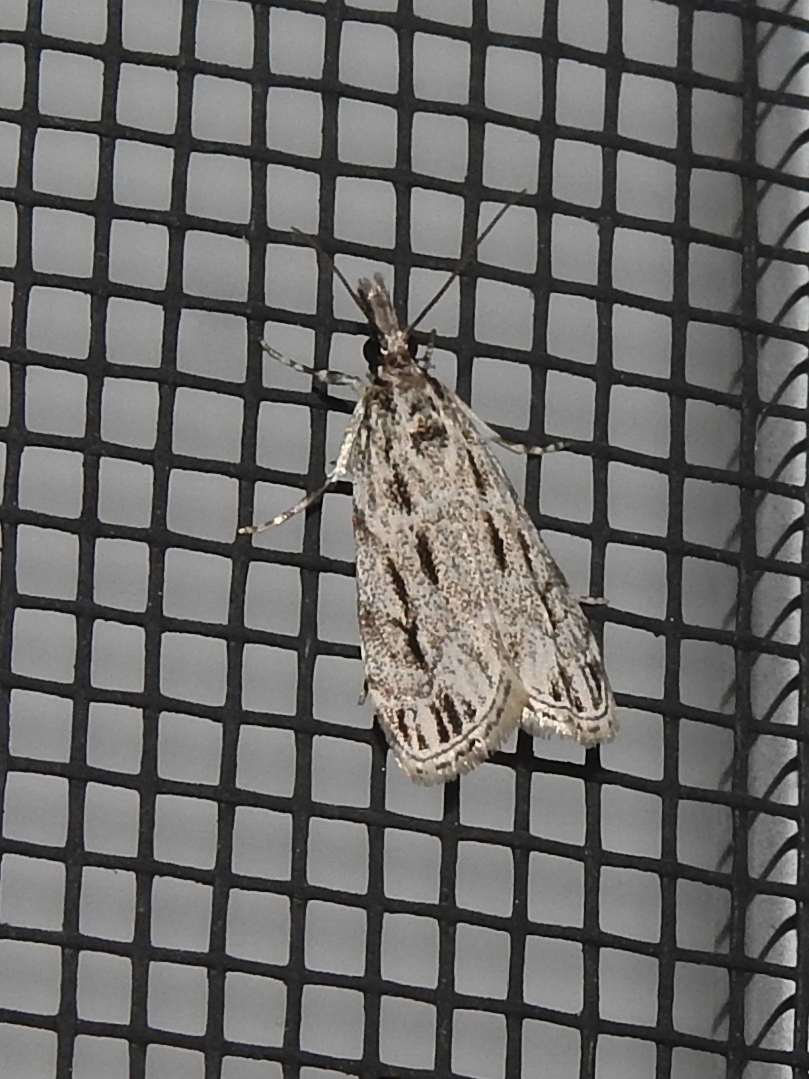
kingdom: Animalia
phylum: Arthropoda
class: Insecta
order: Lepidoptera
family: Crambidae
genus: Eudonia
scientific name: Eudonia strigalis
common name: Striped eudonia moth
